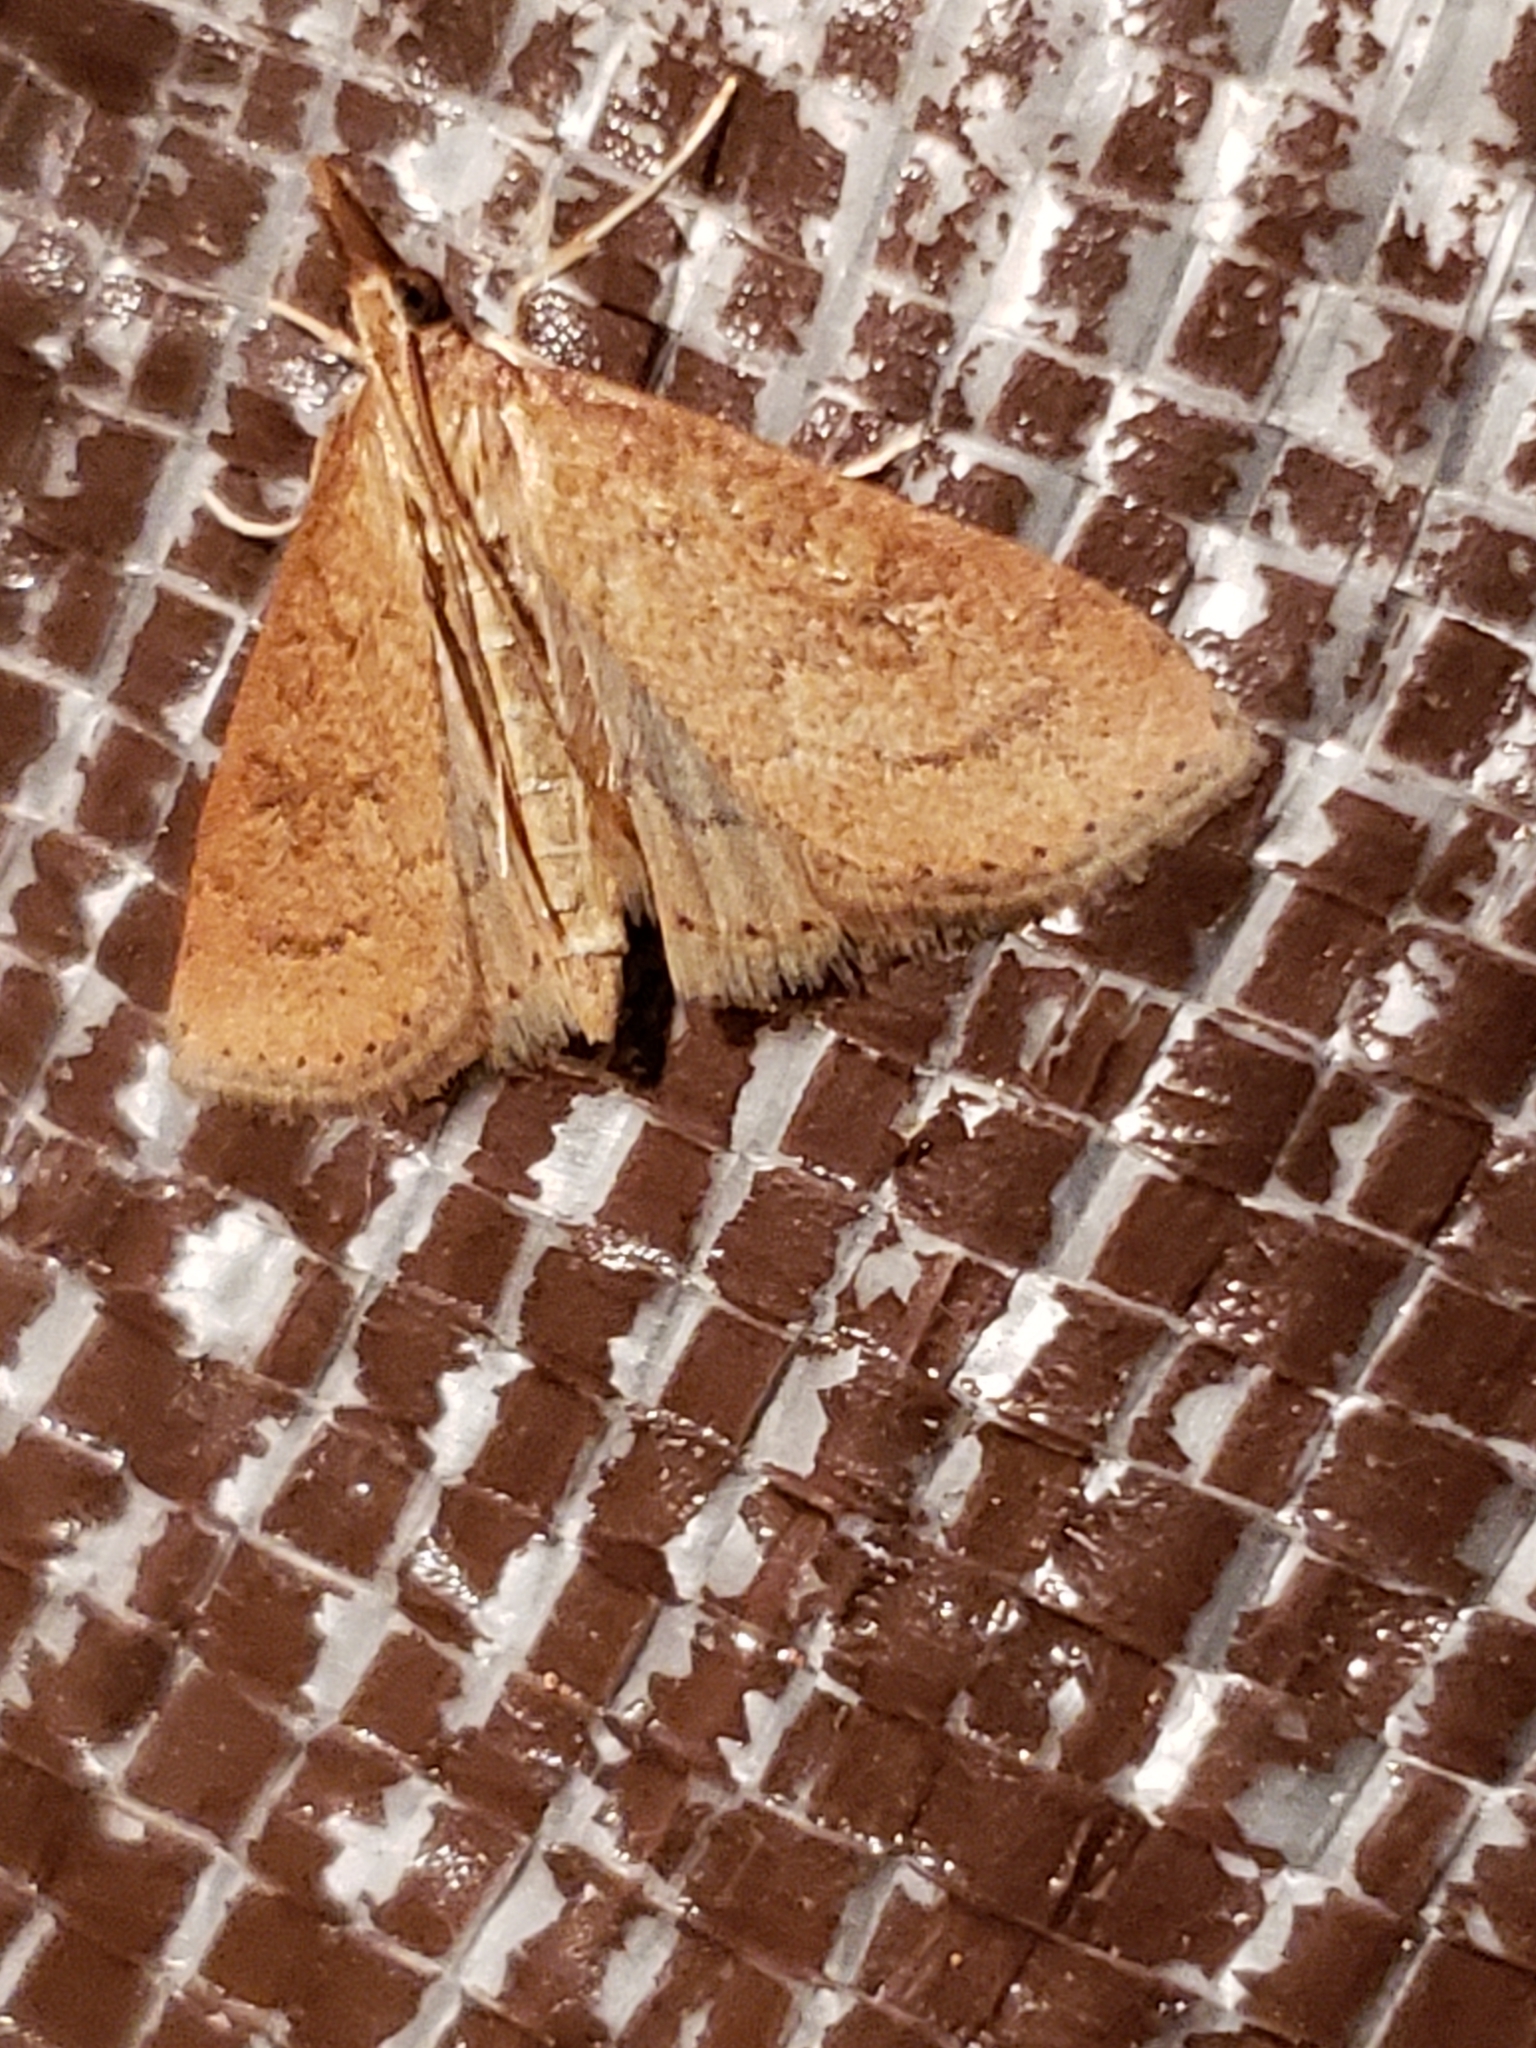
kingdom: Animalia
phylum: Arthropoda
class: Insecta
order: Lepidoptera
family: Crambidae
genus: Udea
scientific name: Udea rubigalis
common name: Celery leaftier moth
